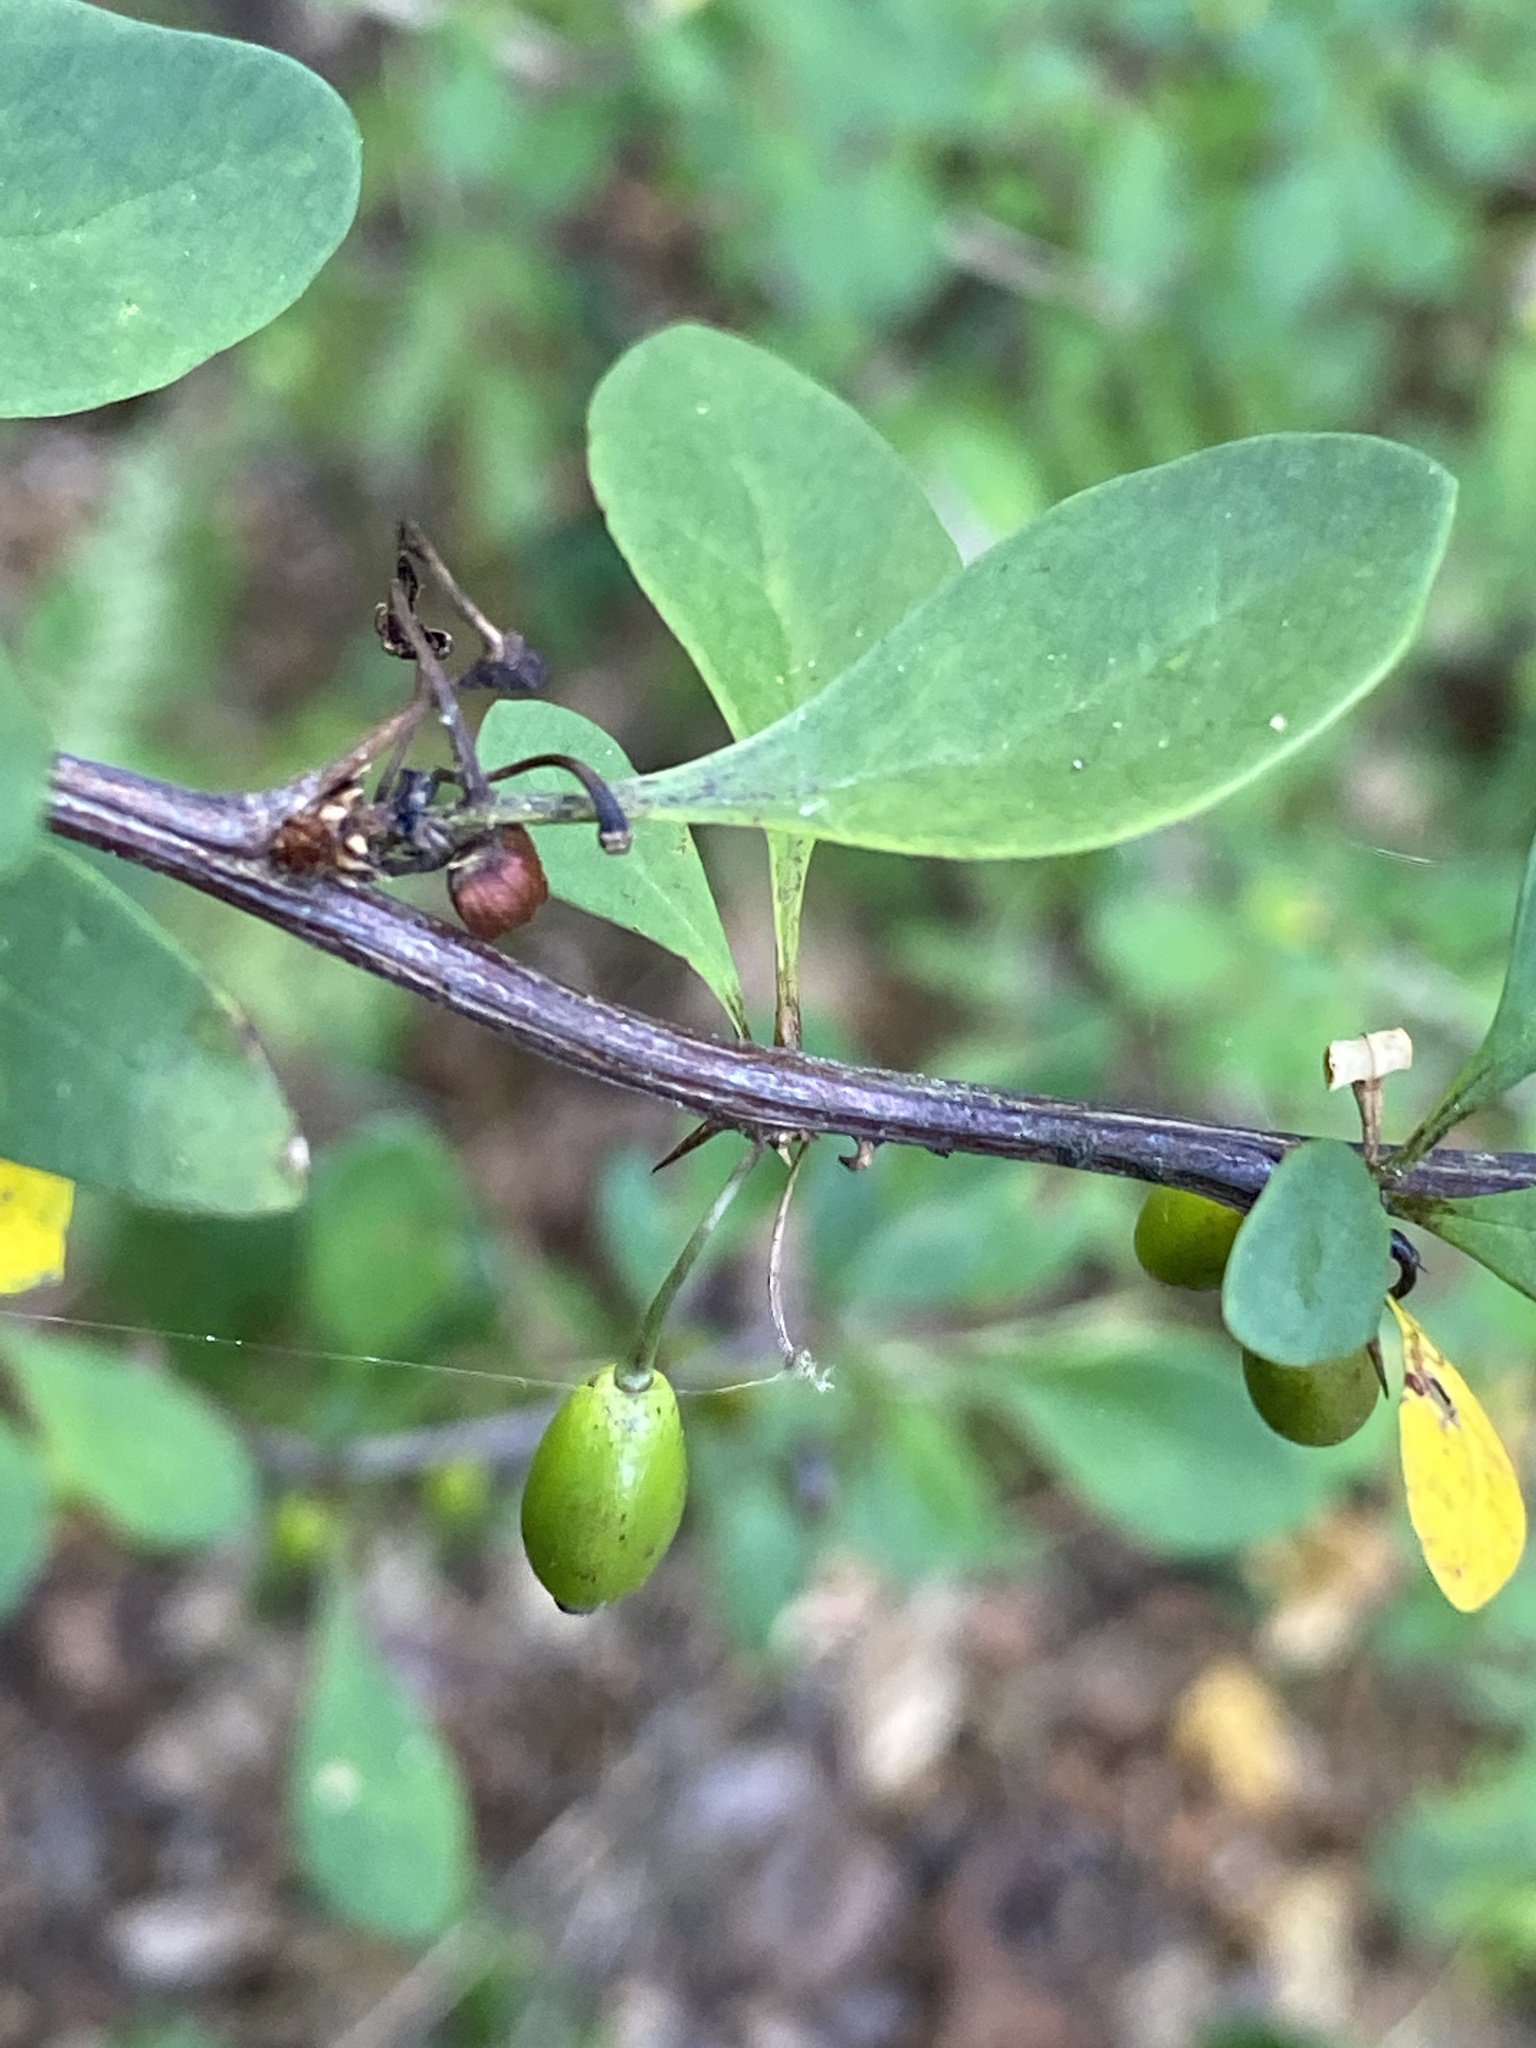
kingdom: Plantae
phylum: Tracheophyta
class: Magnoliopsida
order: Ranunculales
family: Berberidaceae
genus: Berberis
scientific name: Berberis thunbergii
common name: Japanese barberry
